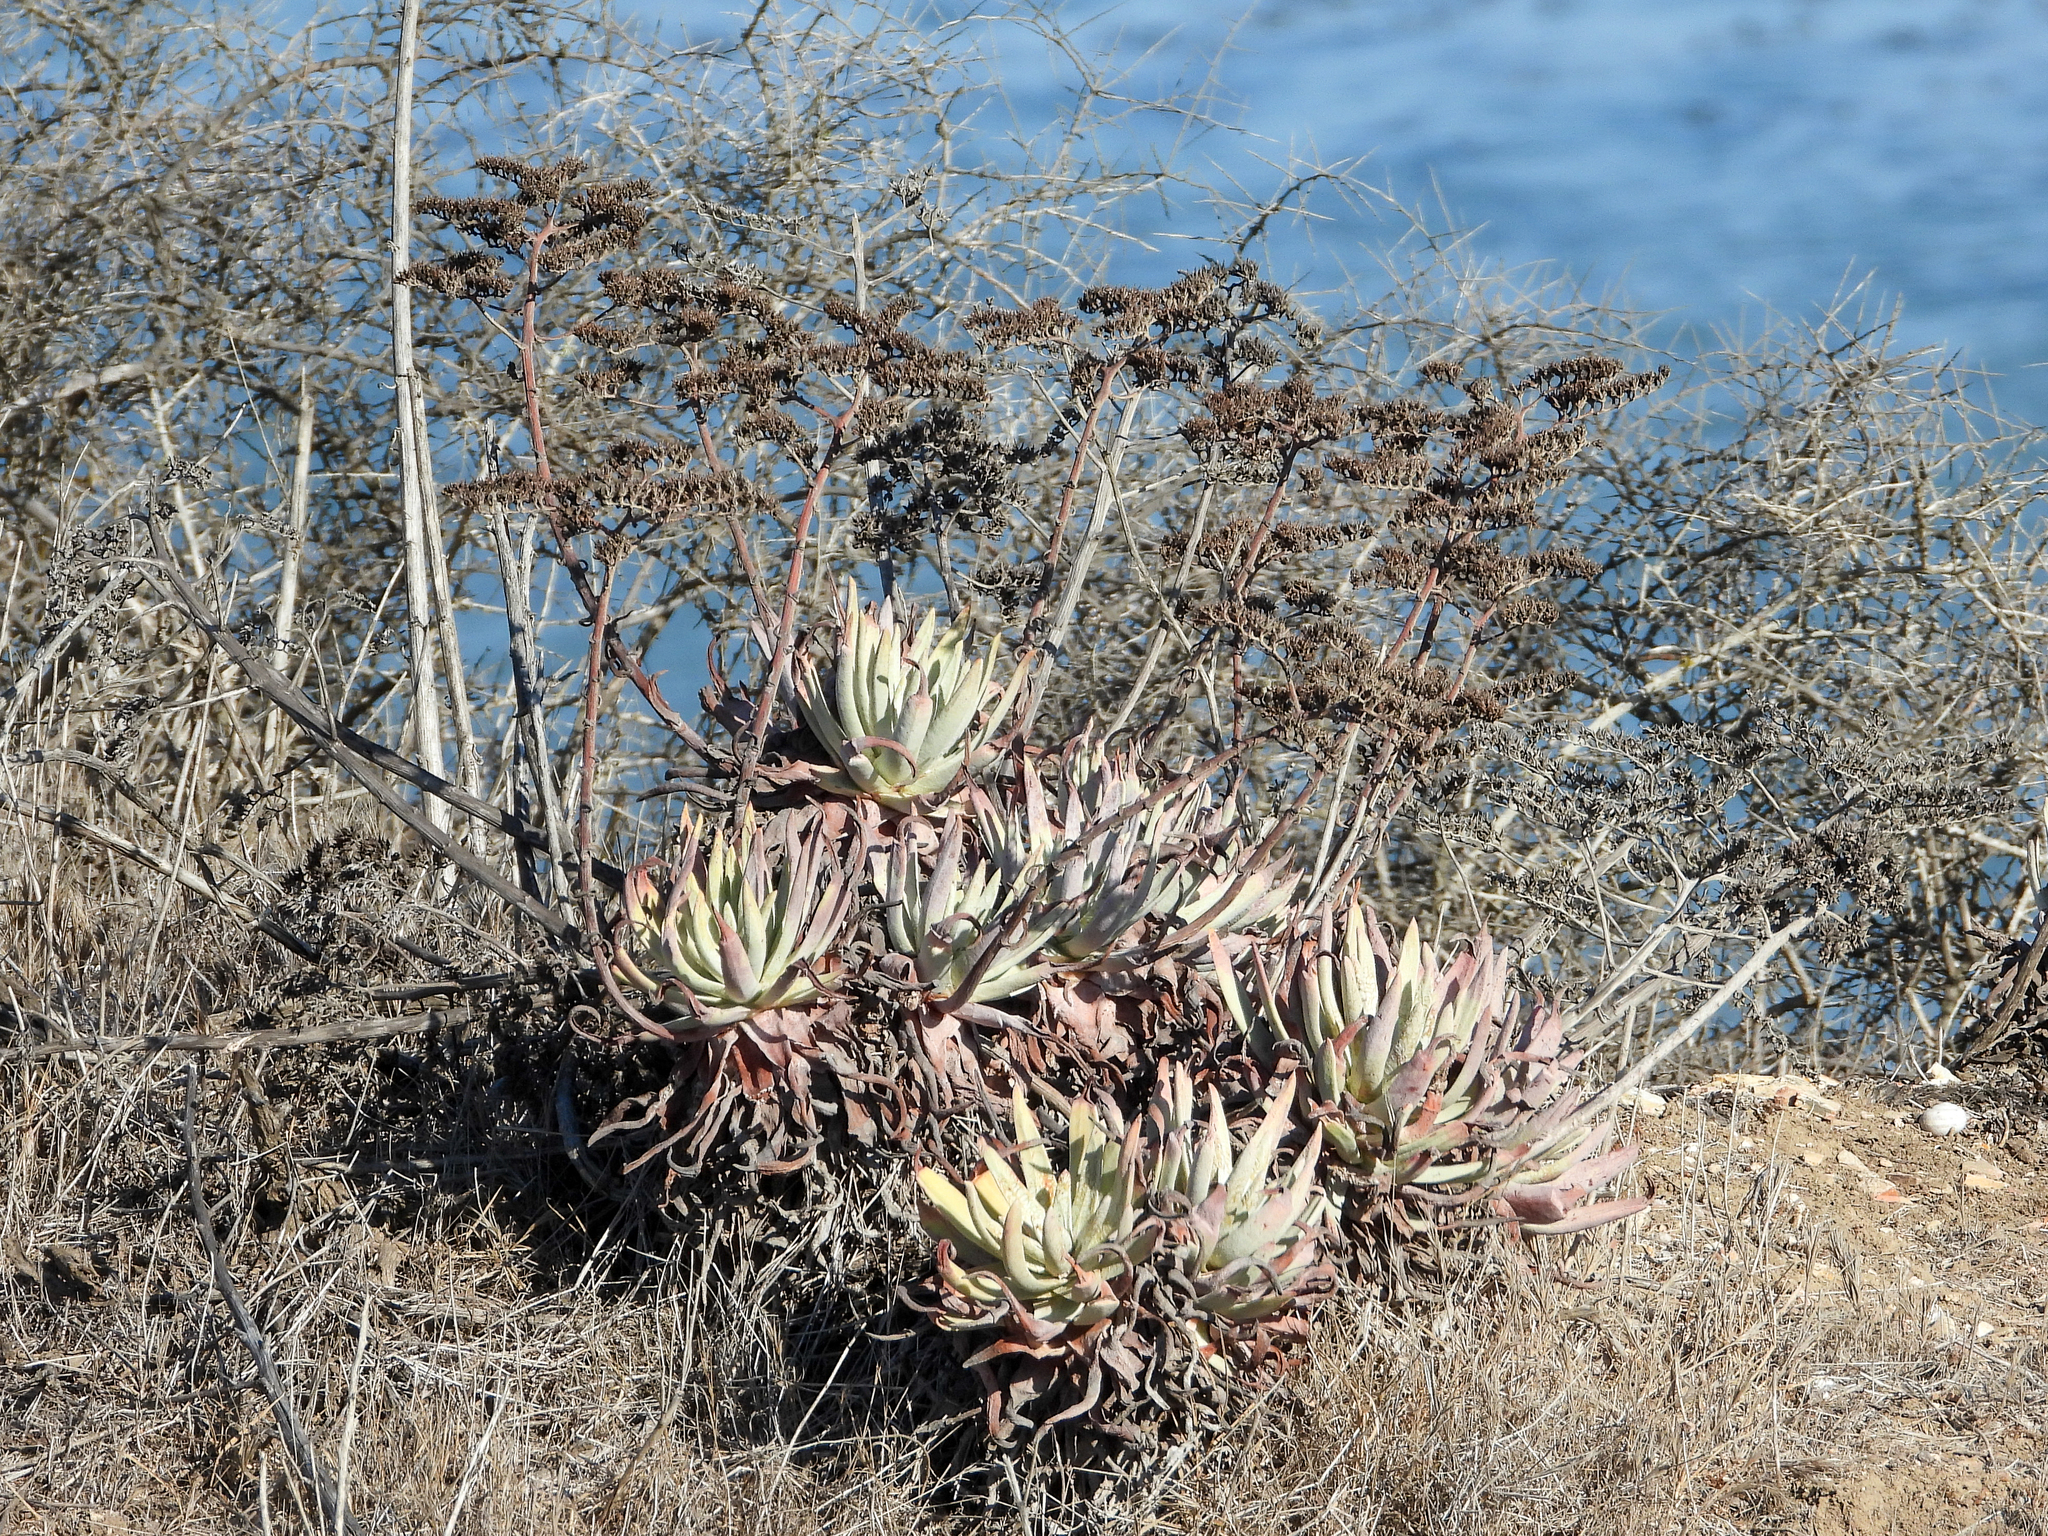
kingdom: Plantae
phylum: Tracheophyta
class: Magnoliopsida
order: Saxifragales
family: Crassulaceae
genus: Dudleya
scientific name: Dudleya virens
